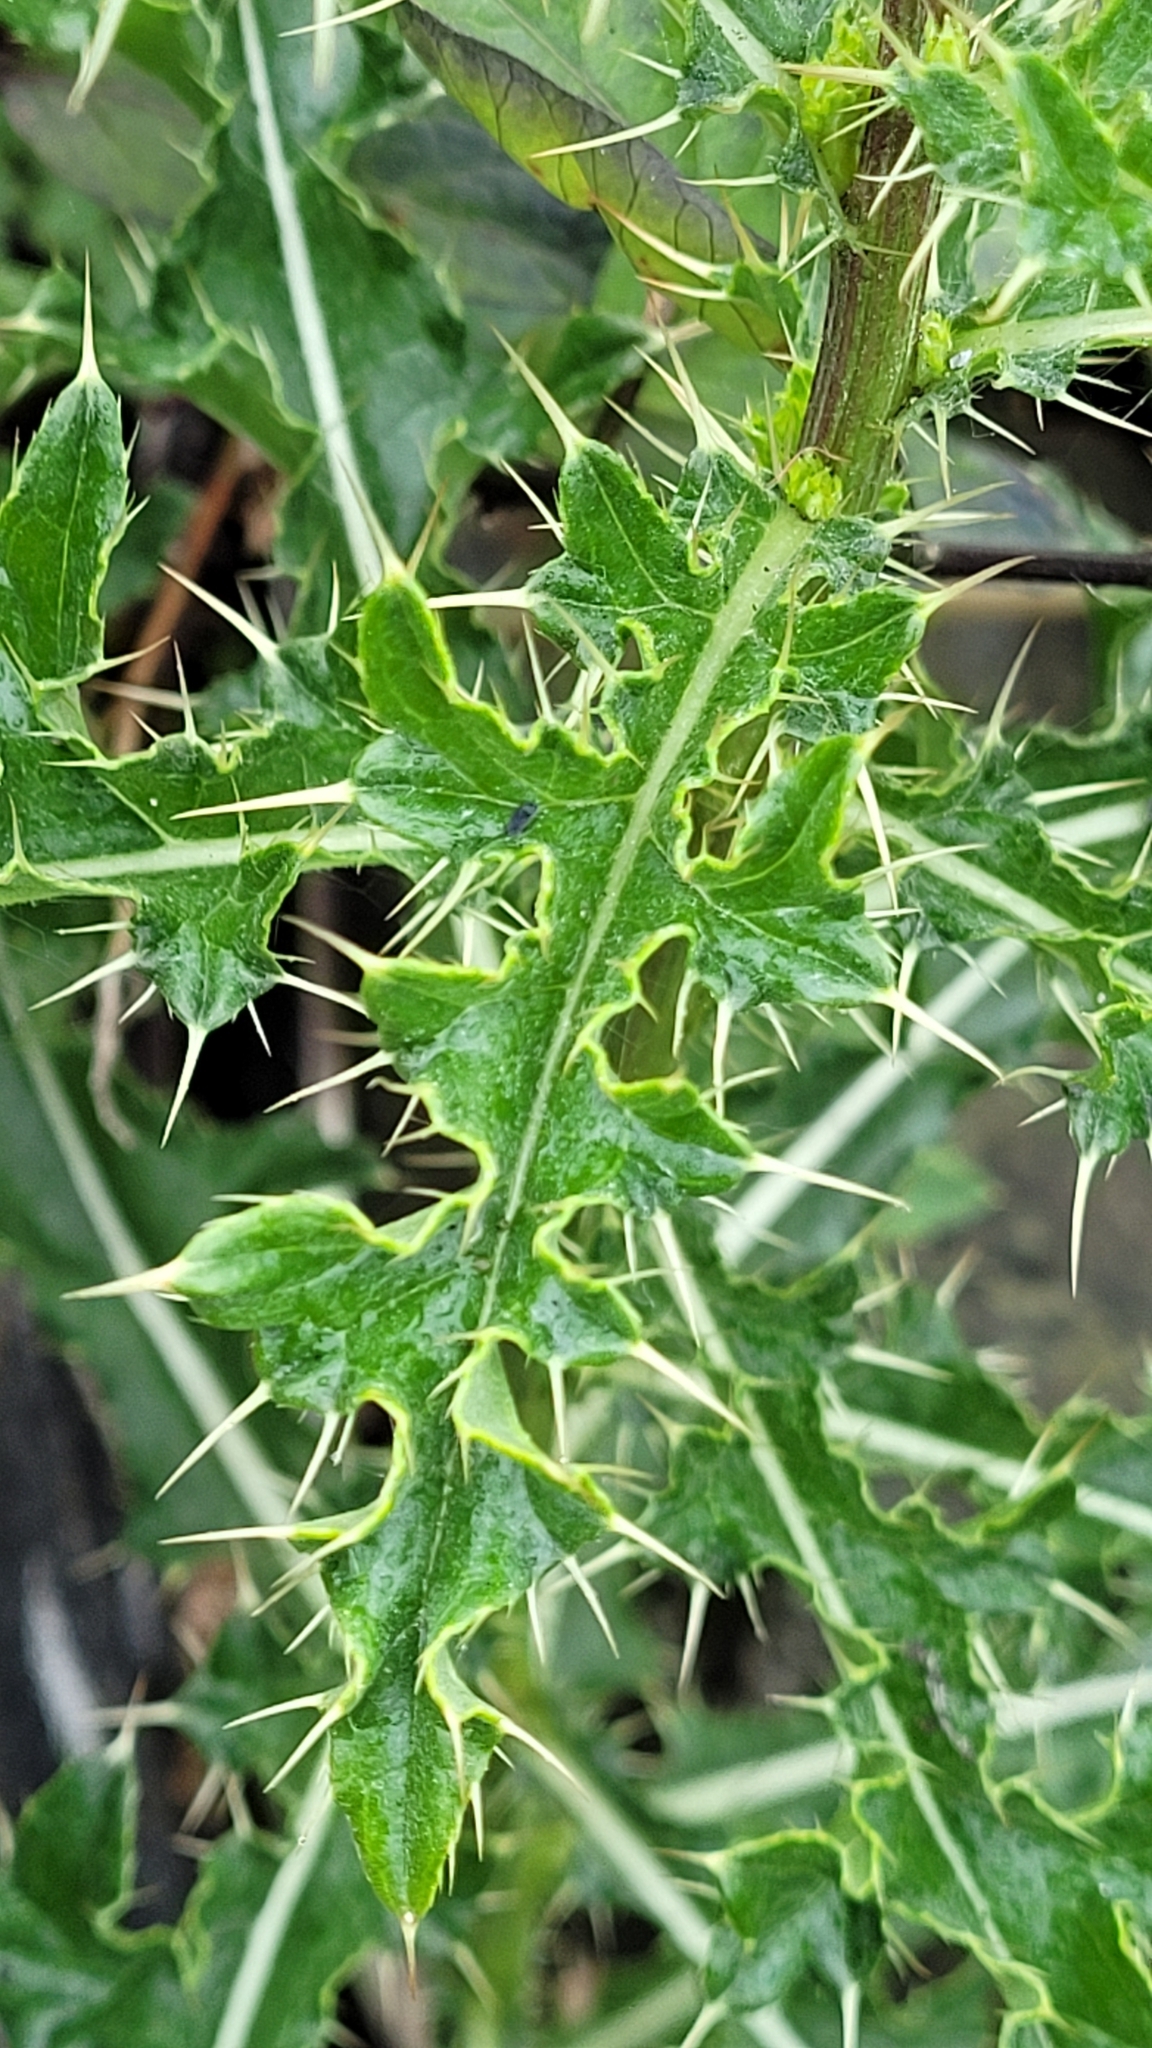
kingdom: Plantae
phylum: Tracheophyta
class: Magnoliopsida
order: Asterales
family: Asteraceae
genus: Cirsium
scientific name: Cirsium arvense
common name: Creeping thistle
